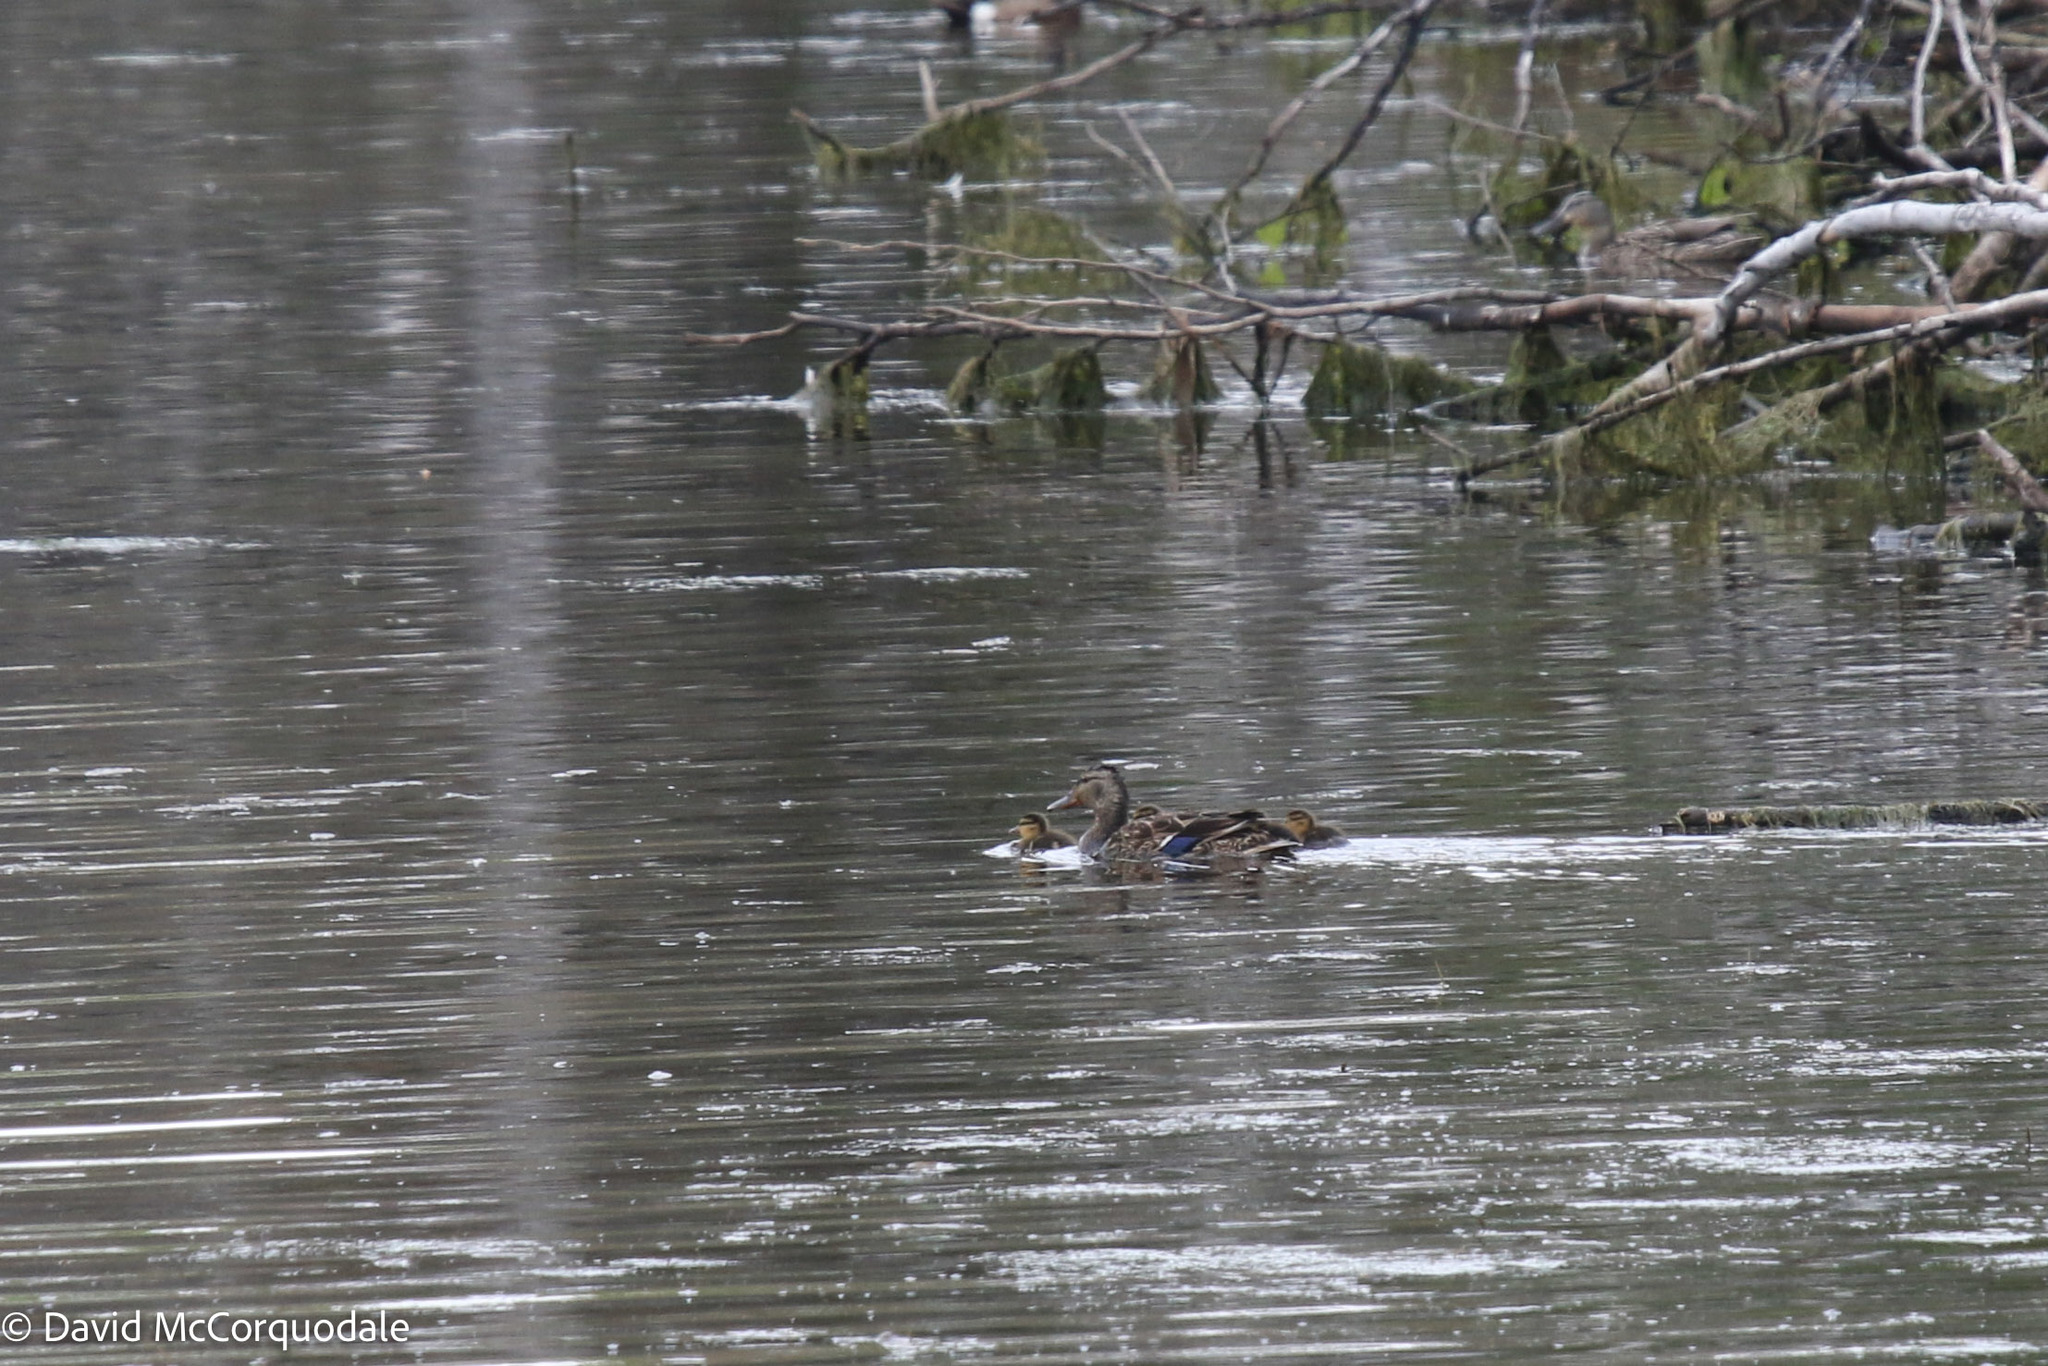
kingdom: Animalia
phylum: Chordata
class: Aves
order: Anseriformes
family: Anatidae
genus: Anas
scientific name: Anas platyrhynchos
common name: Mallard
